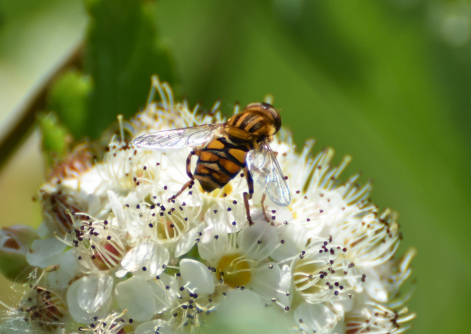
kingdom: Animalia
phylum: Arthropoda
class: Insecta
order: Diptera
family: Syrphidae
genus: Parhelophilus
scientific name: Parhelophilus laetus
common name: Common bog fly
